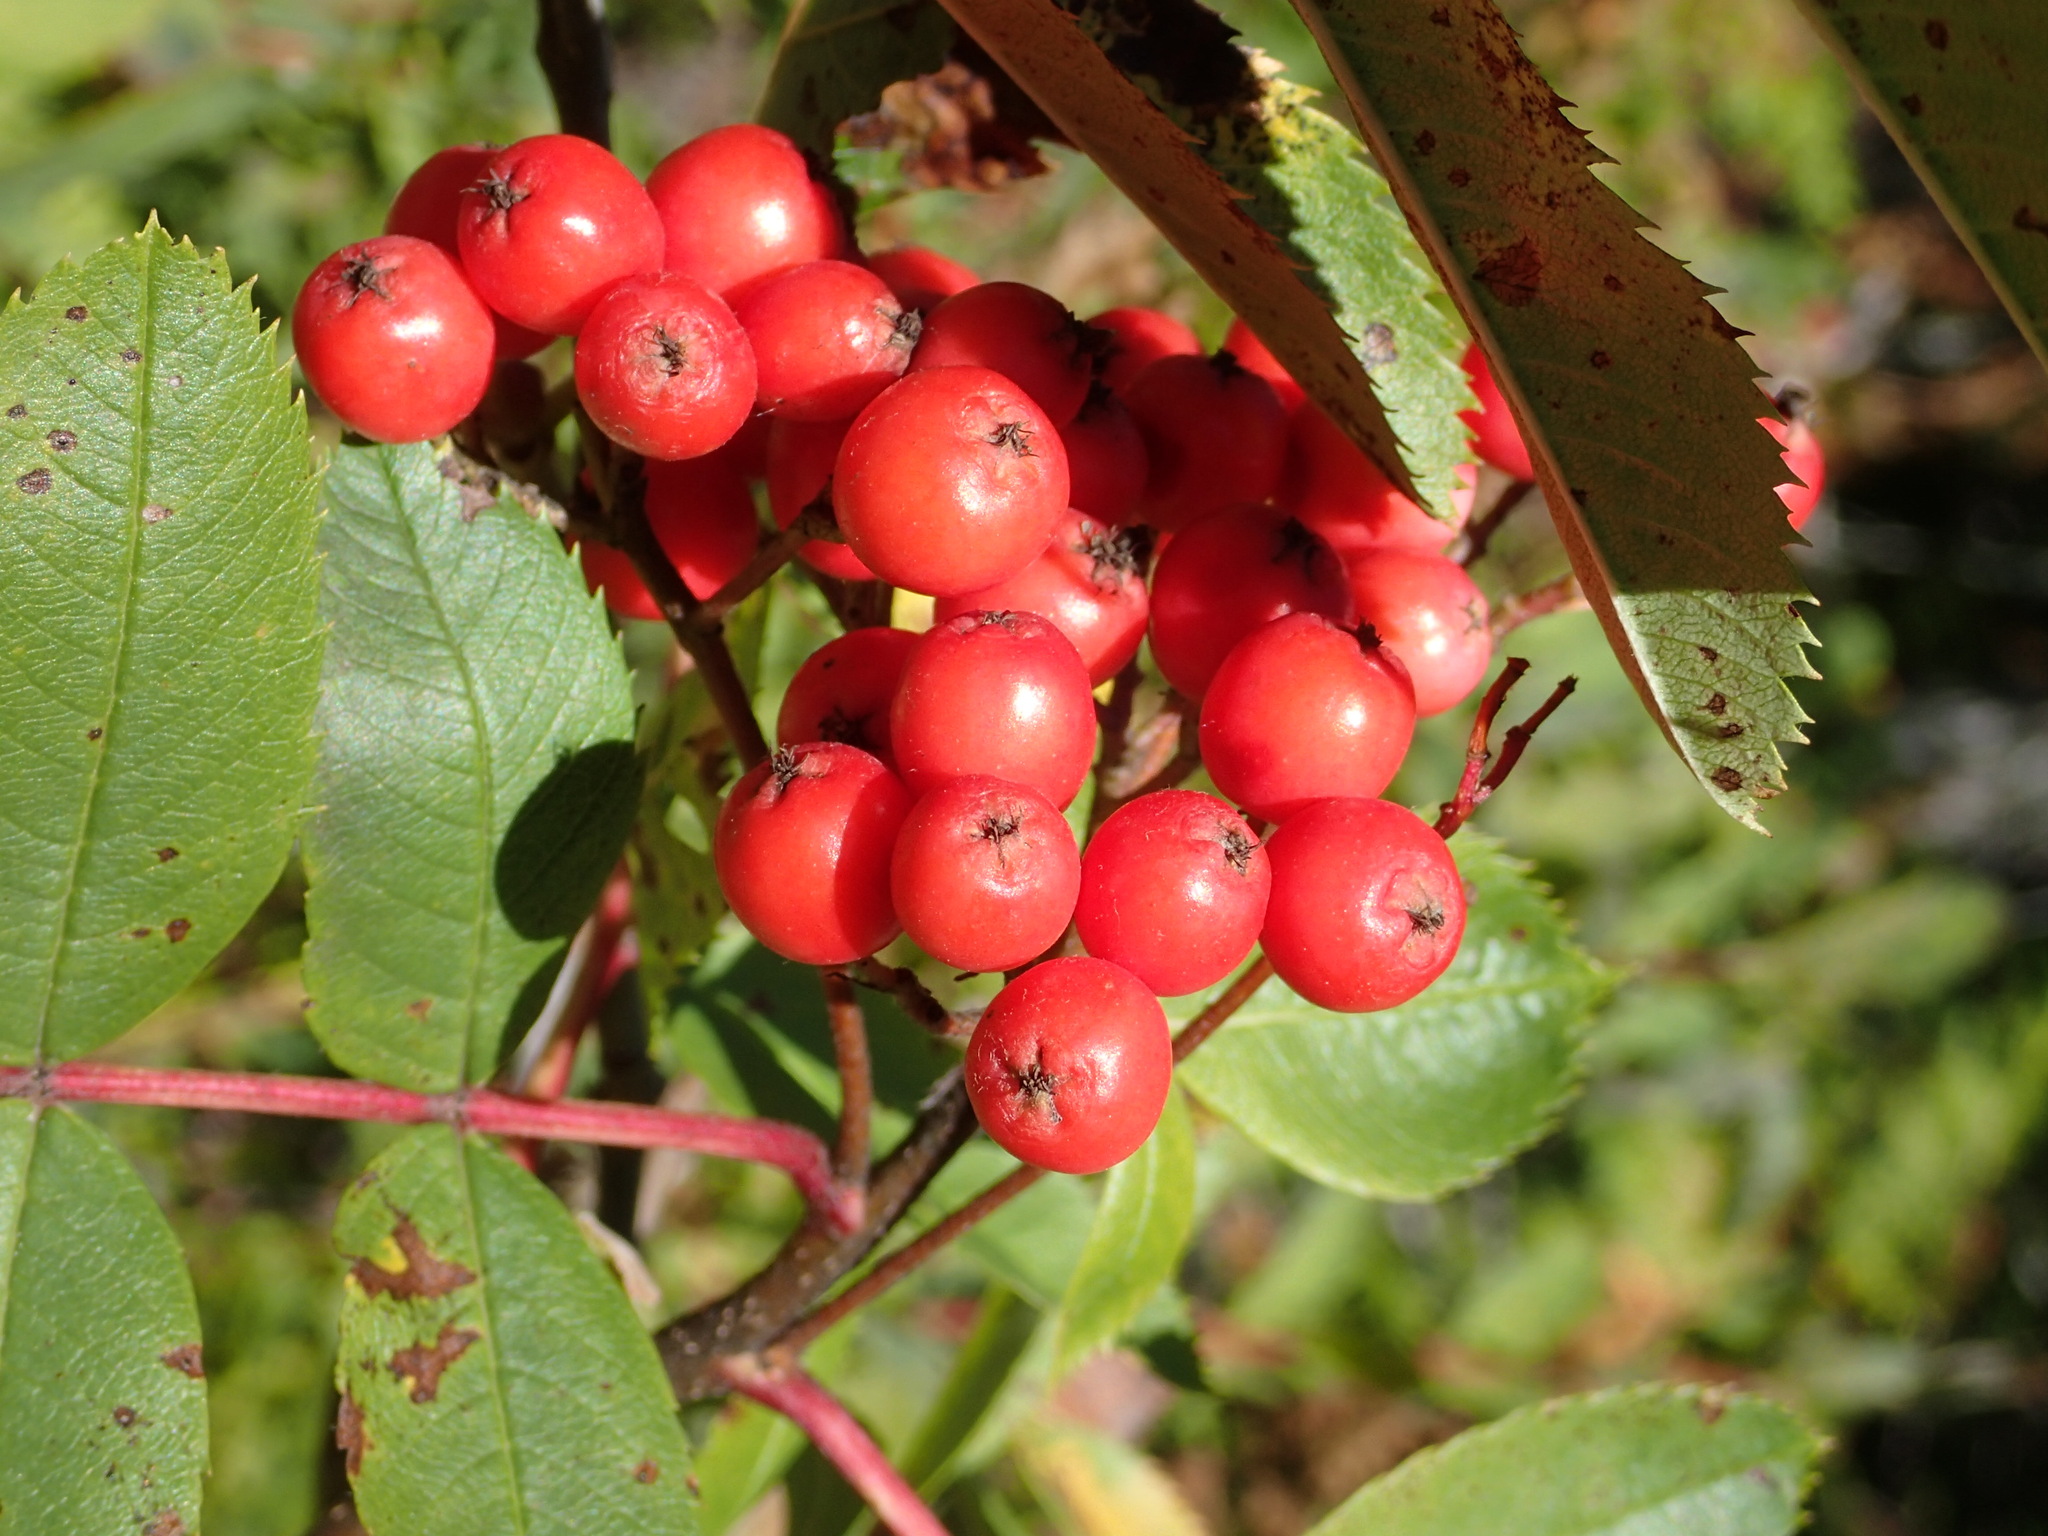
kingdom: Plantae
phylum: Tracheophyta
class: Magnoliopsida
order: Rosales
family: Rosaceae
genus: Sorbus
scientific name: Sorbus sitchensis
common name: Sitka mountain-ash
